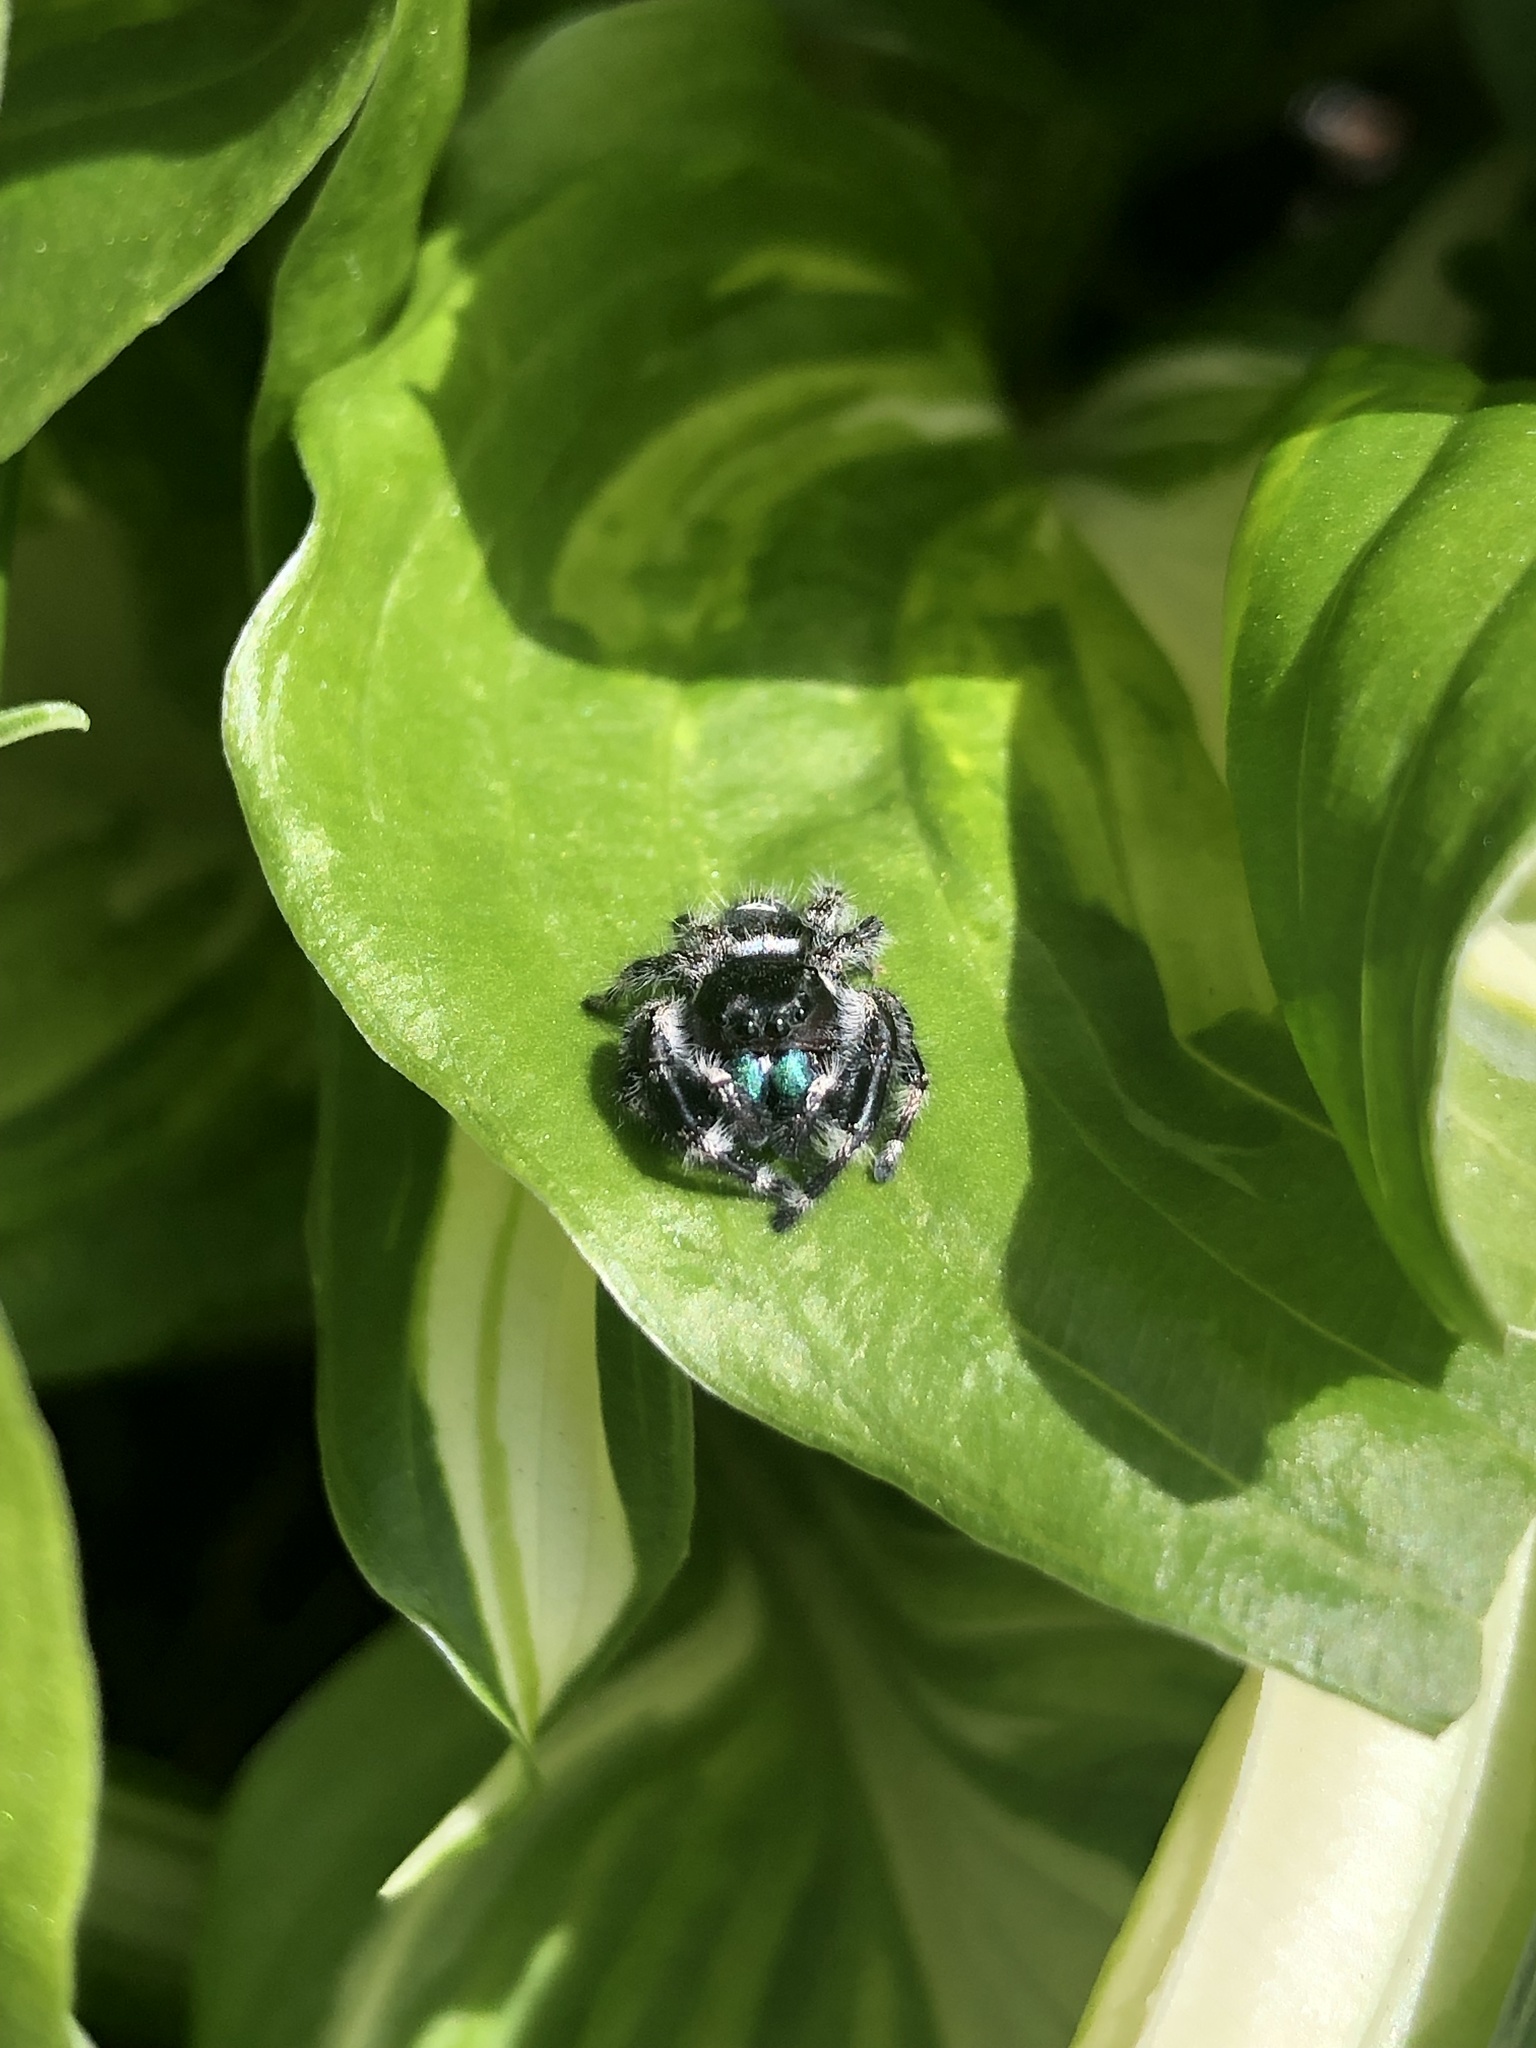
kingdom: Animalia
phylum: Arthropoda
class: Arachnida
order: Araneae
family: Salticidae
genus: Phidippus
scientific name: Phidippus audax
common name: Bold jumper
